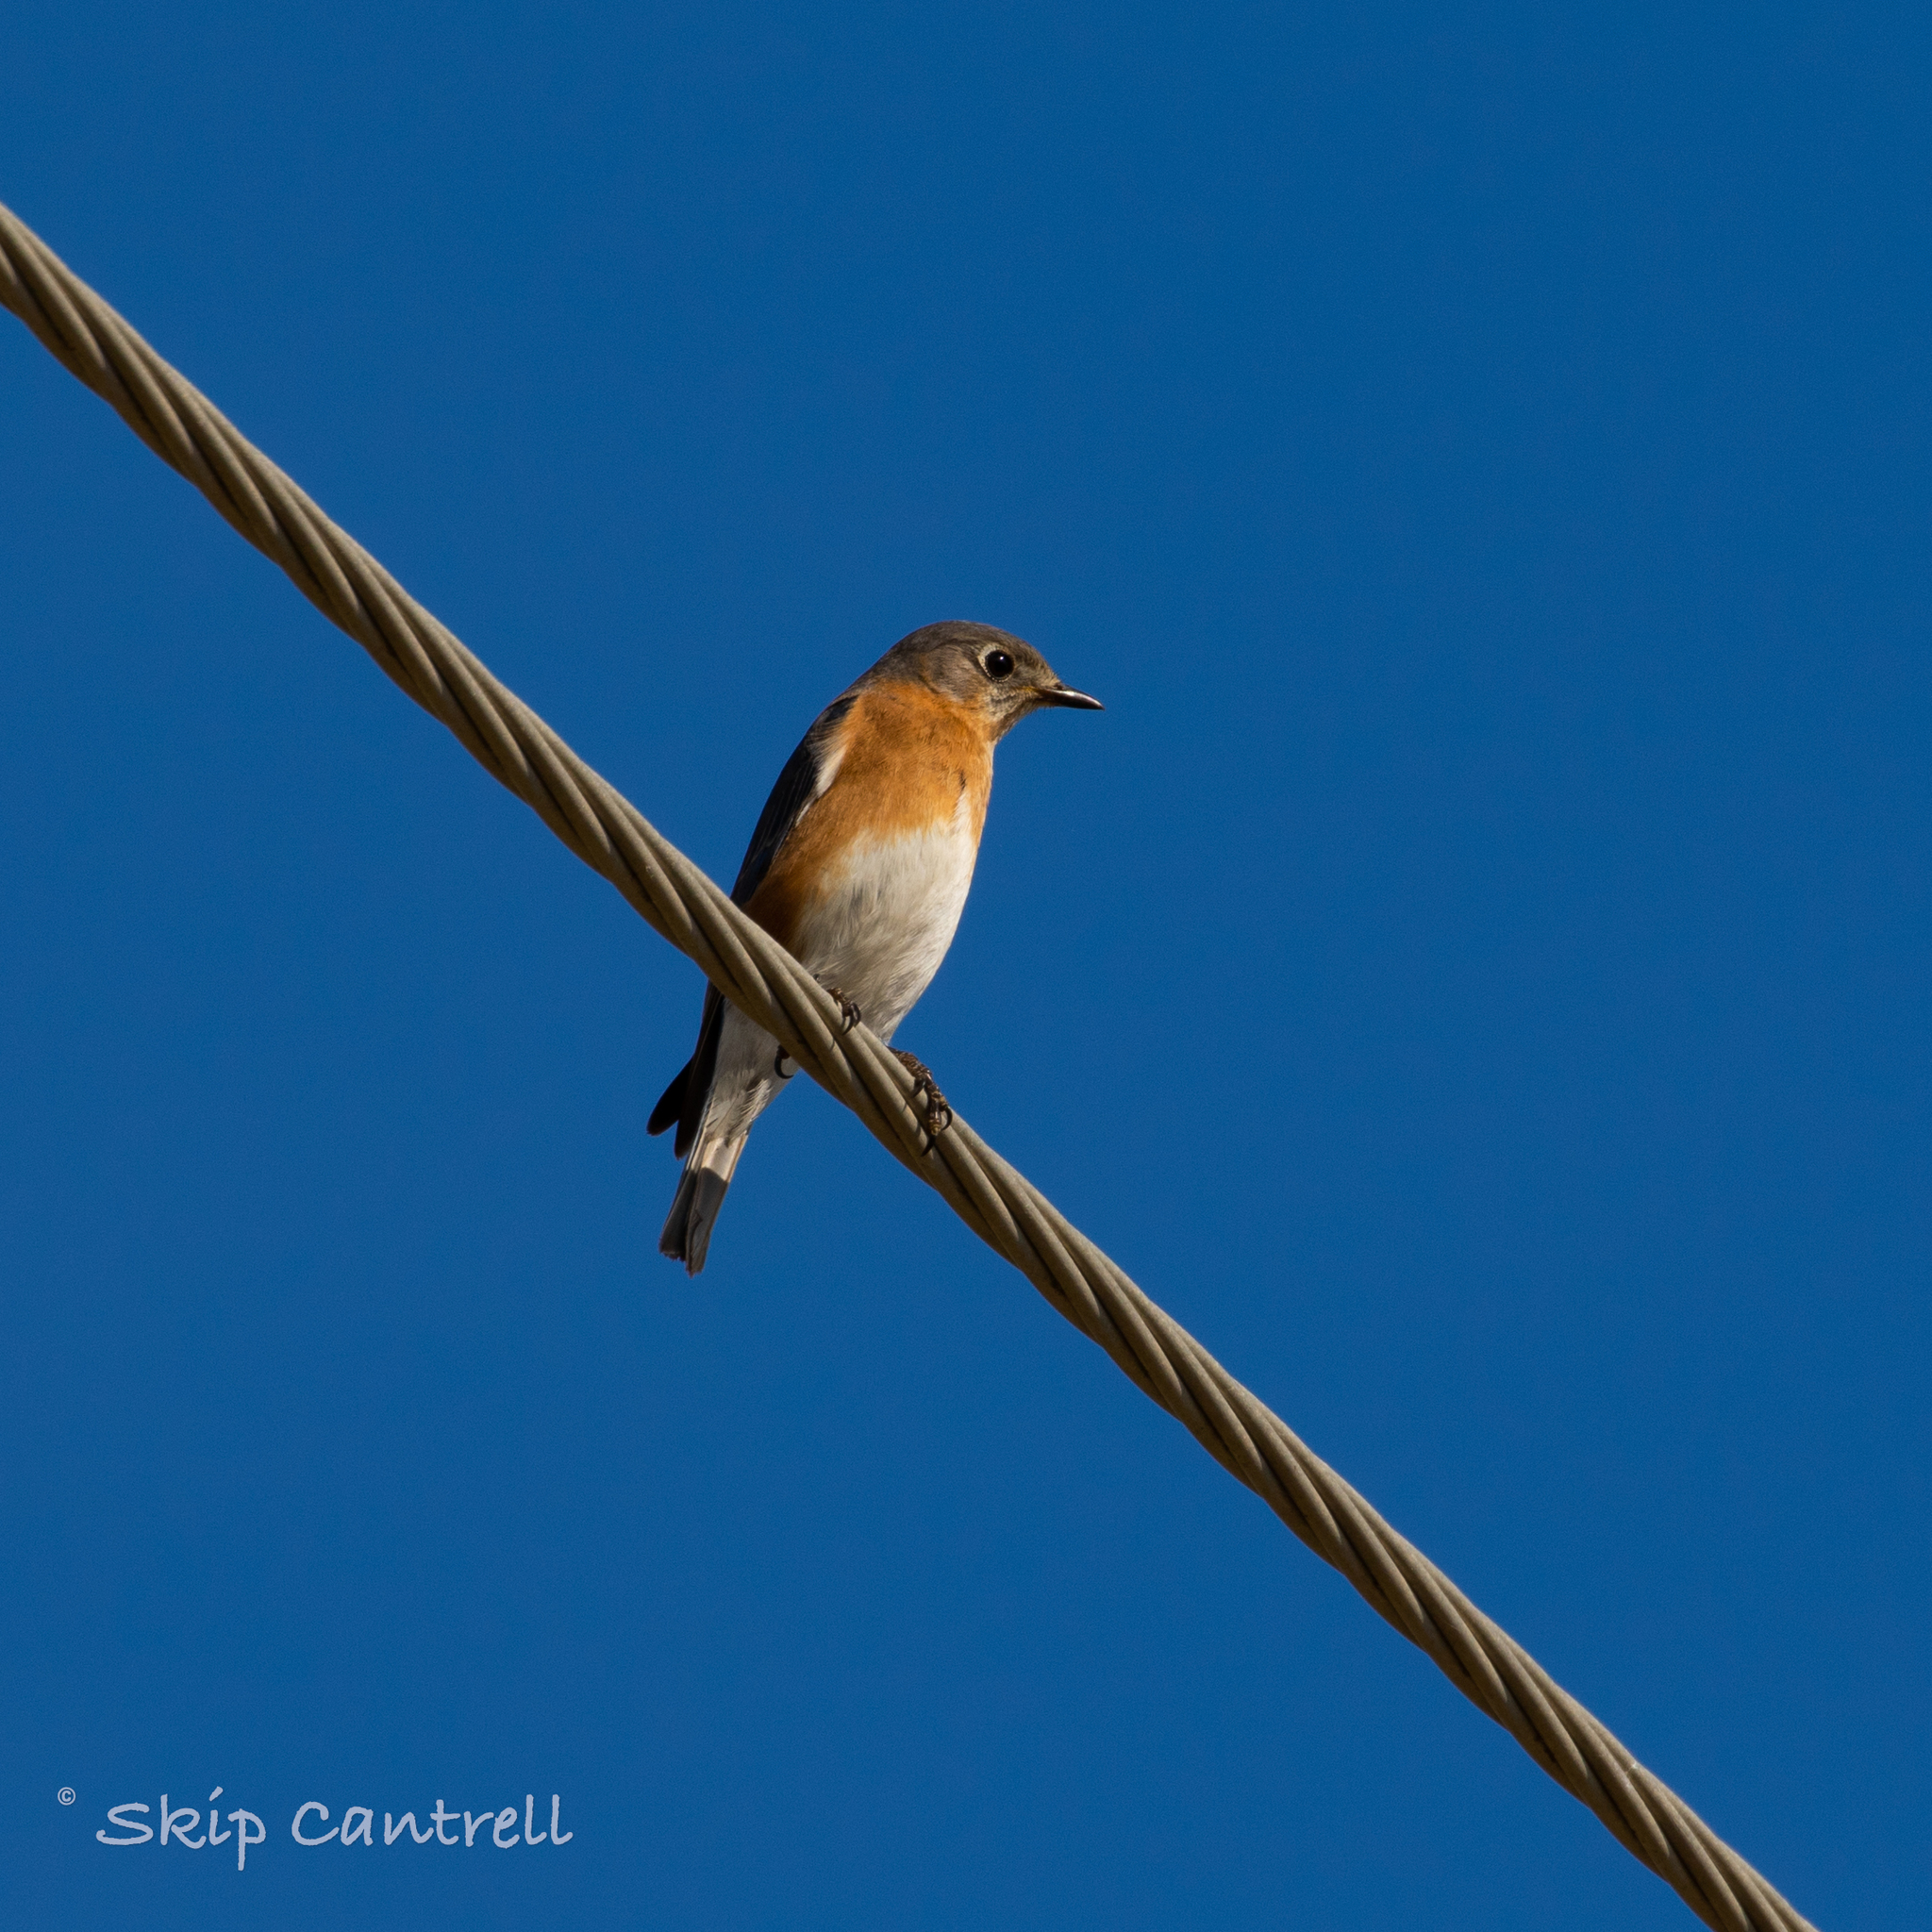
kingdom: Animalia
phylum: Chordata
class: Aves
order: Passeriformes
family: Turdidae
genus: Sialia
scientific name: Sialia sialis
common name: Eastern bluebird
